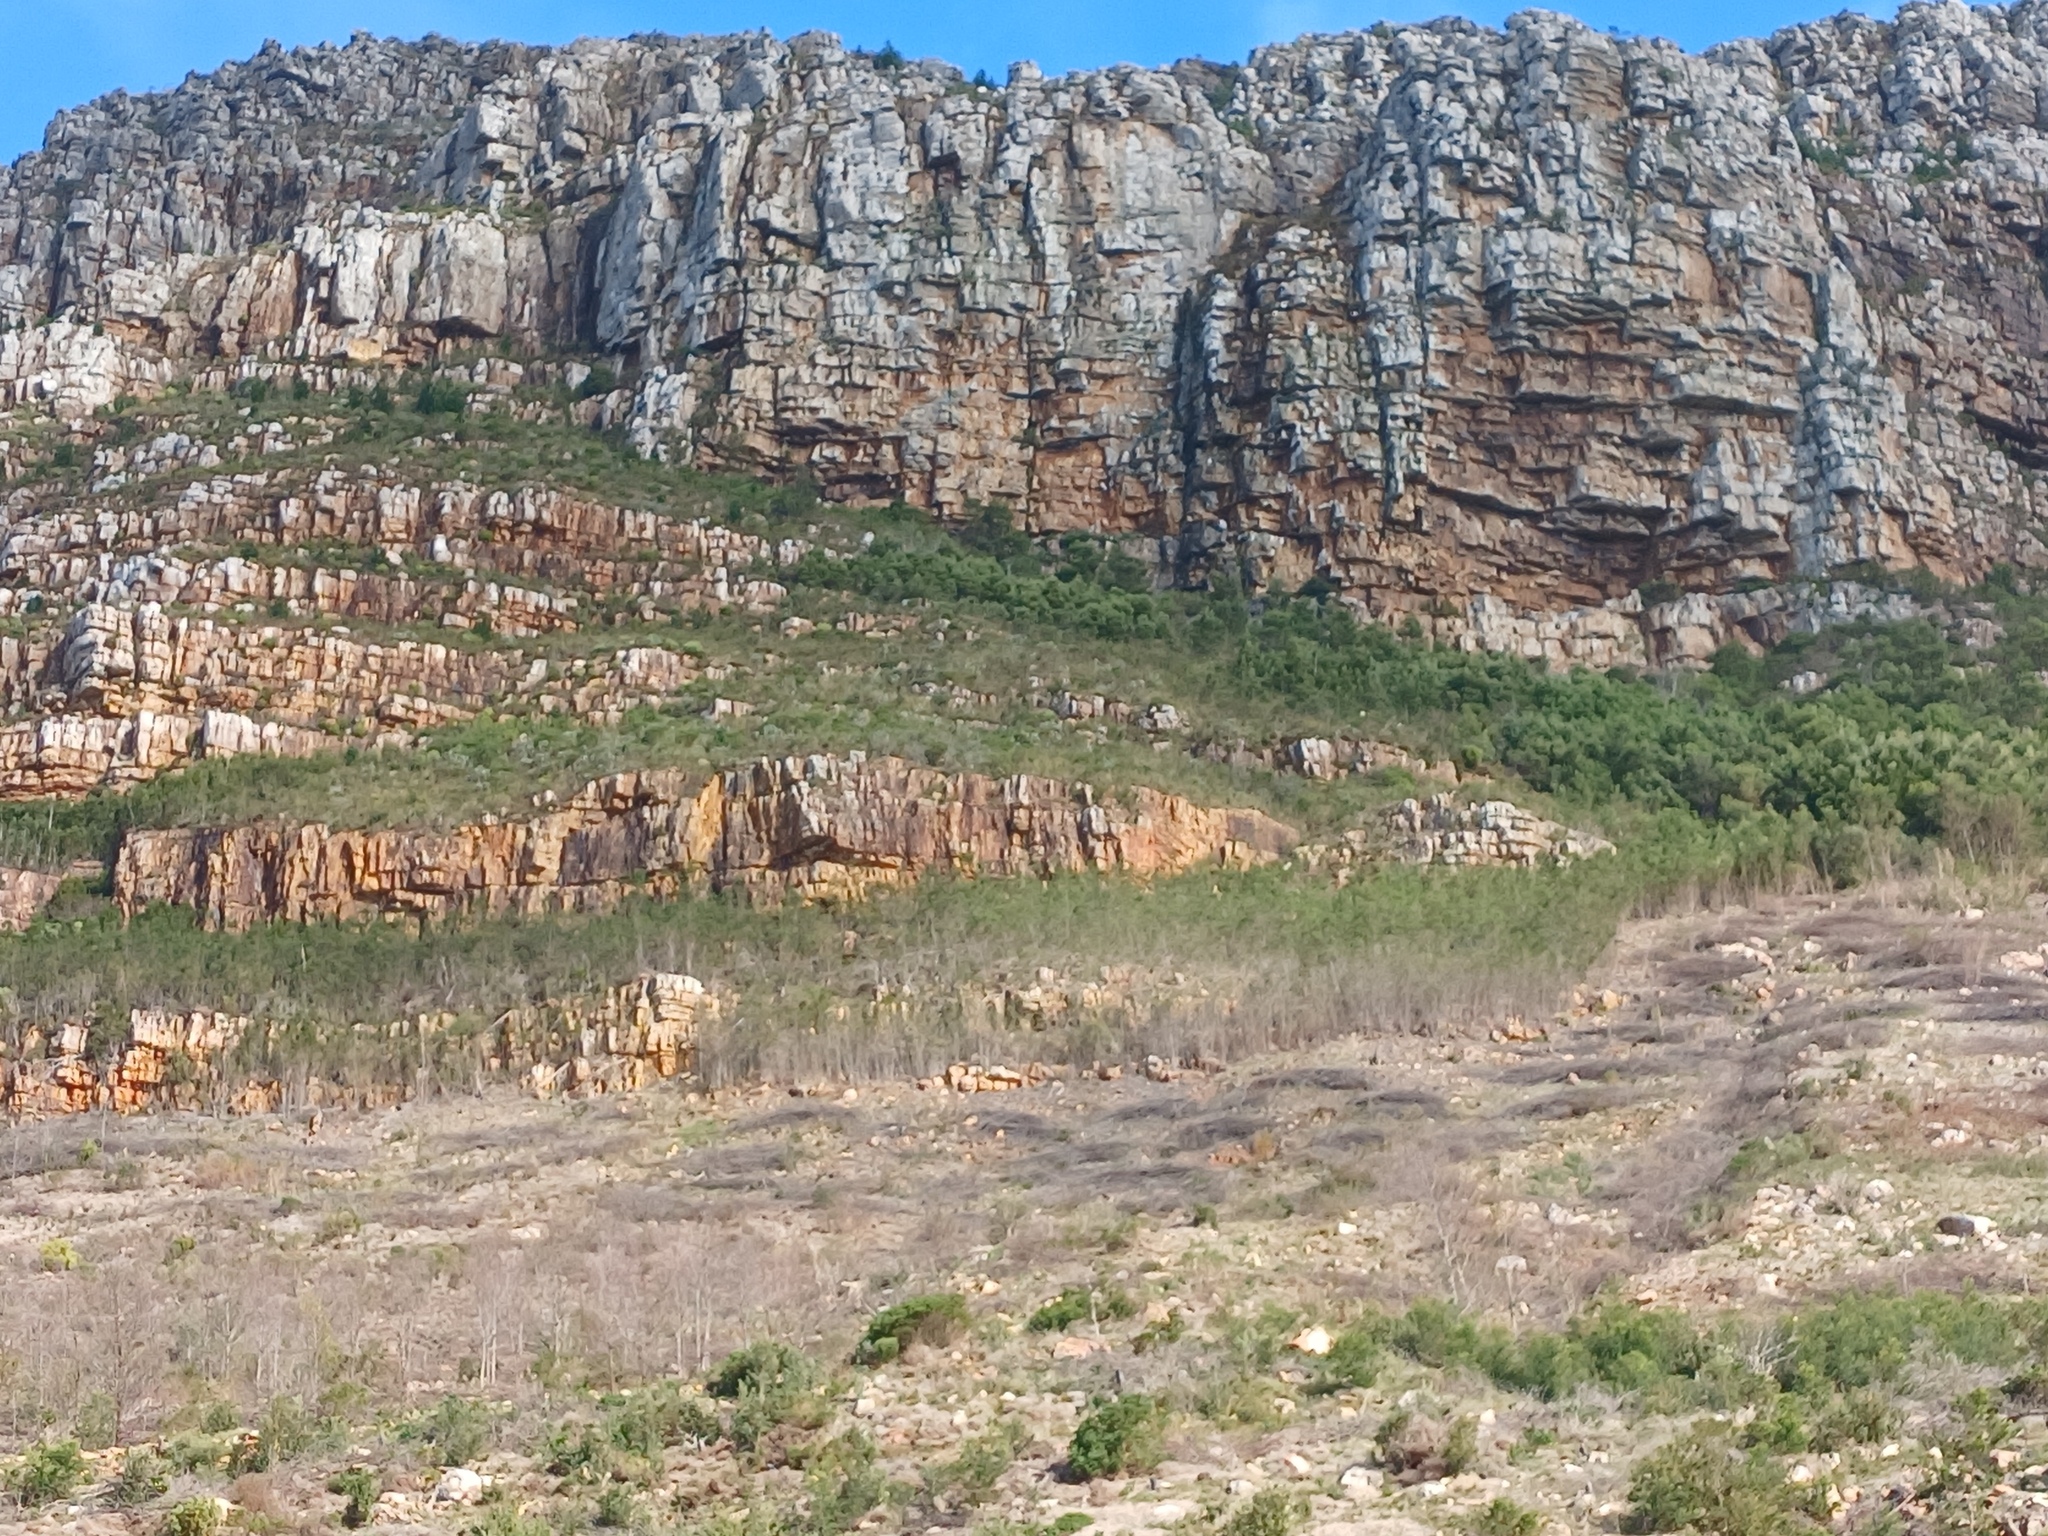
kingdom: Plantae
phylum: Tracheophyta
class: Magnoliopsida
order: Fabales
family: Fabaceae
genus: Acacia
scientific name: Acacia mearnsii
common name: Black wattle
